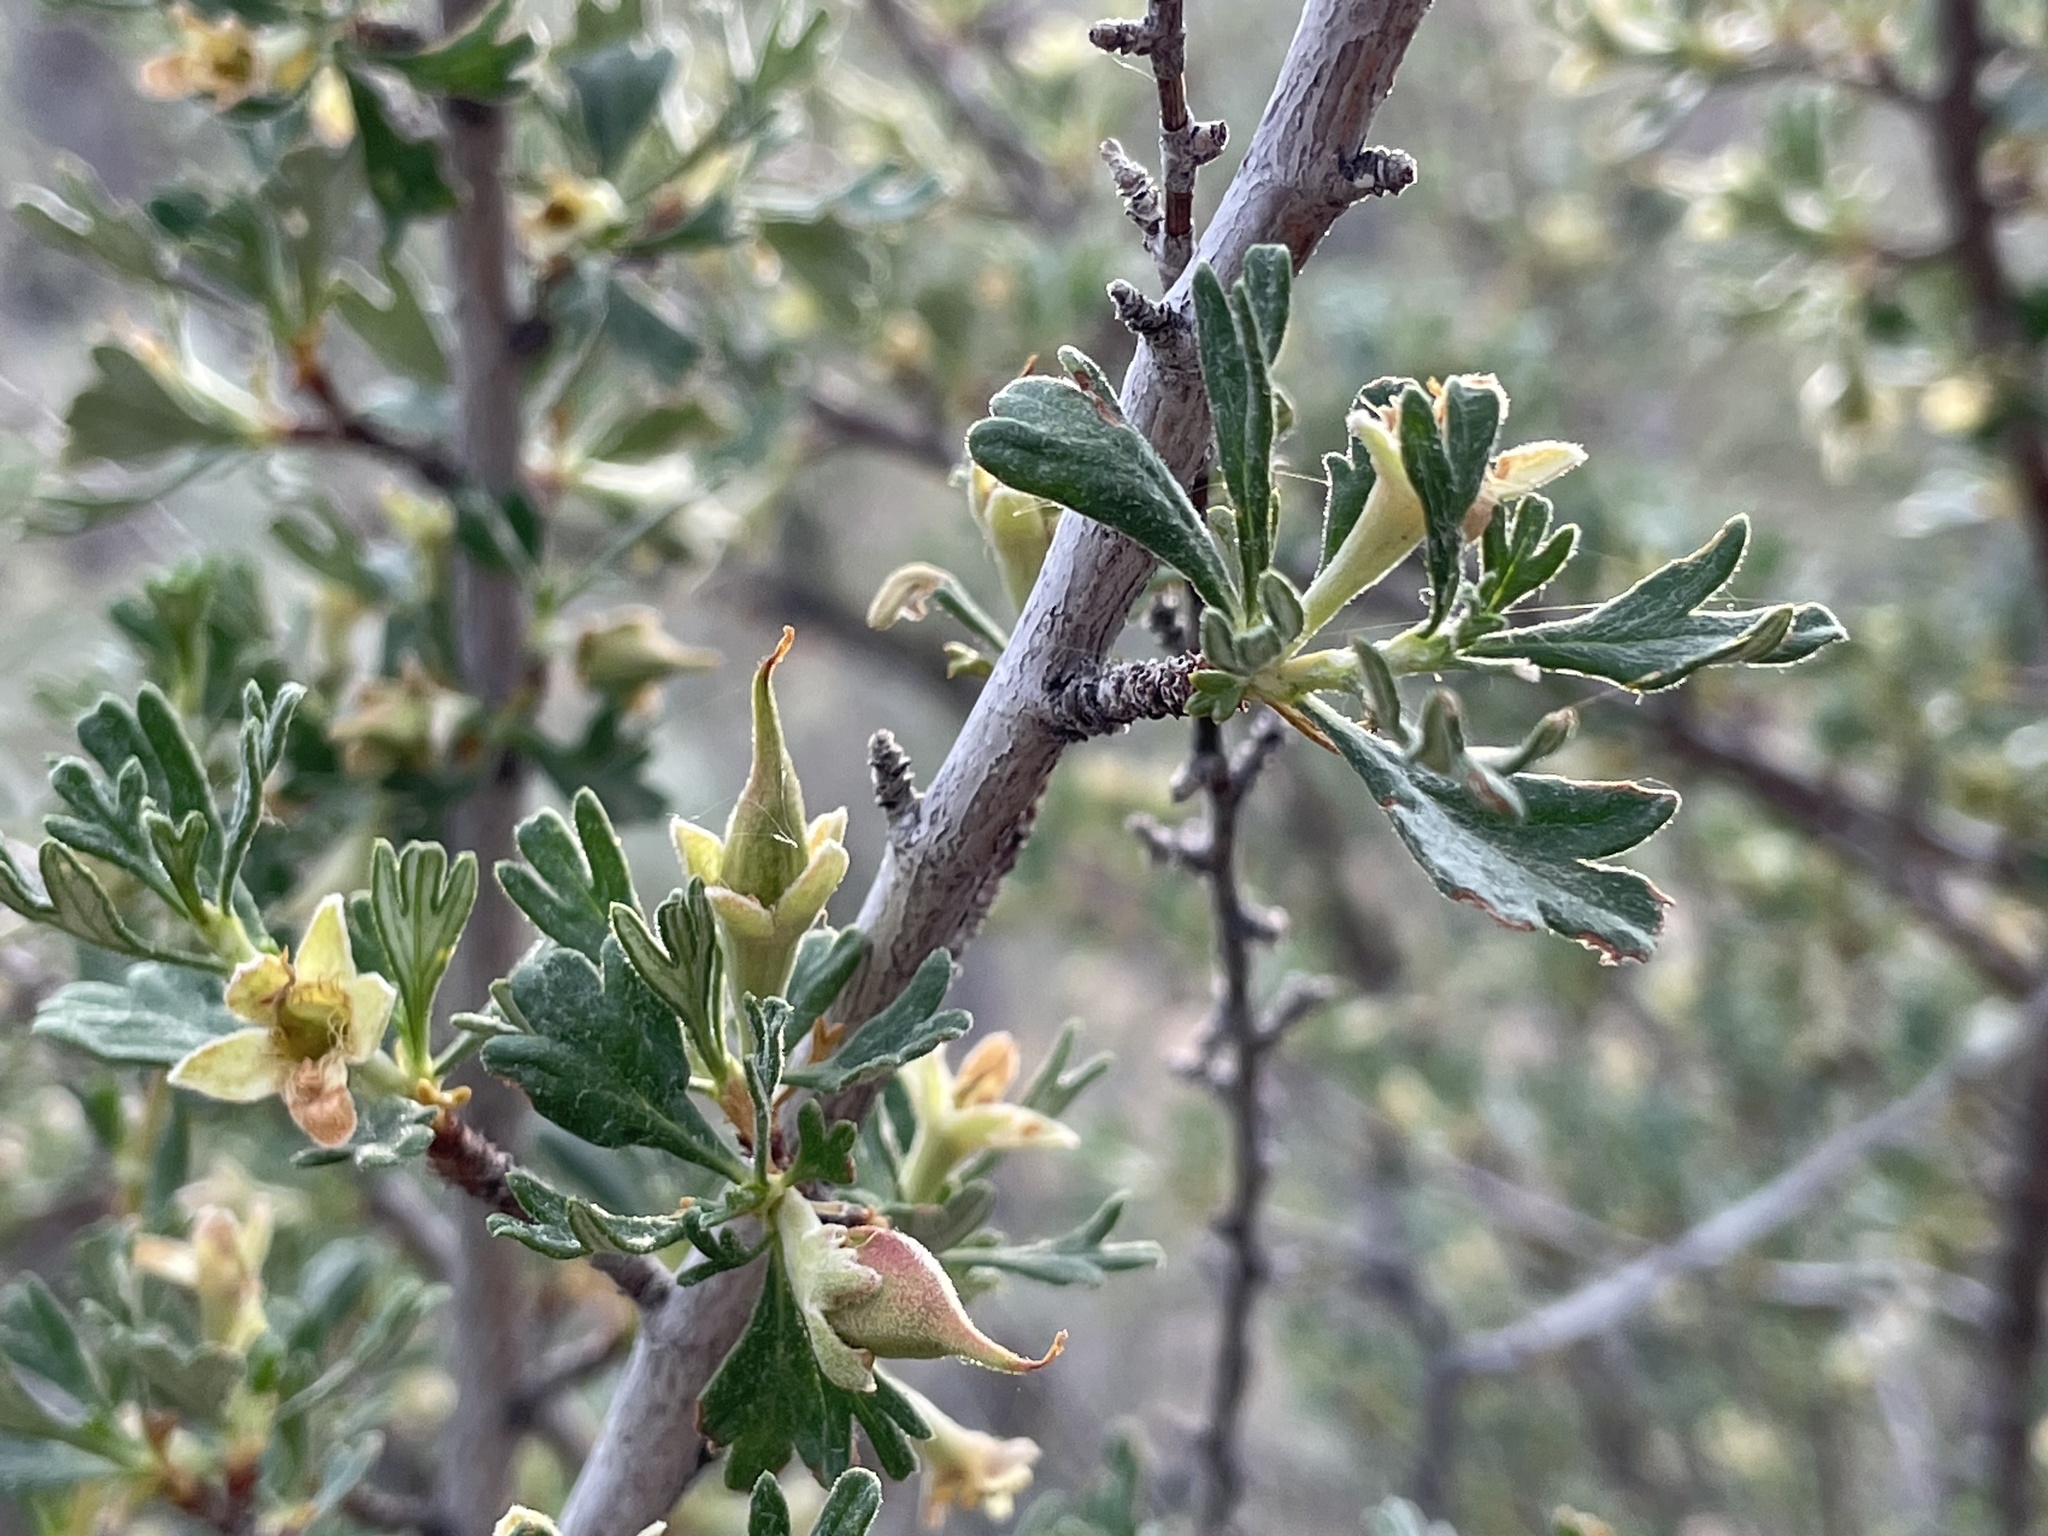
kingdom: Plantae
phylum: Tracheophyta
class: Magnoliopsida
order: Rosales
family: Rosaceae
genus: Purshia
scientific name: Purshia tridentata
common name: Antelope bitterbrush
